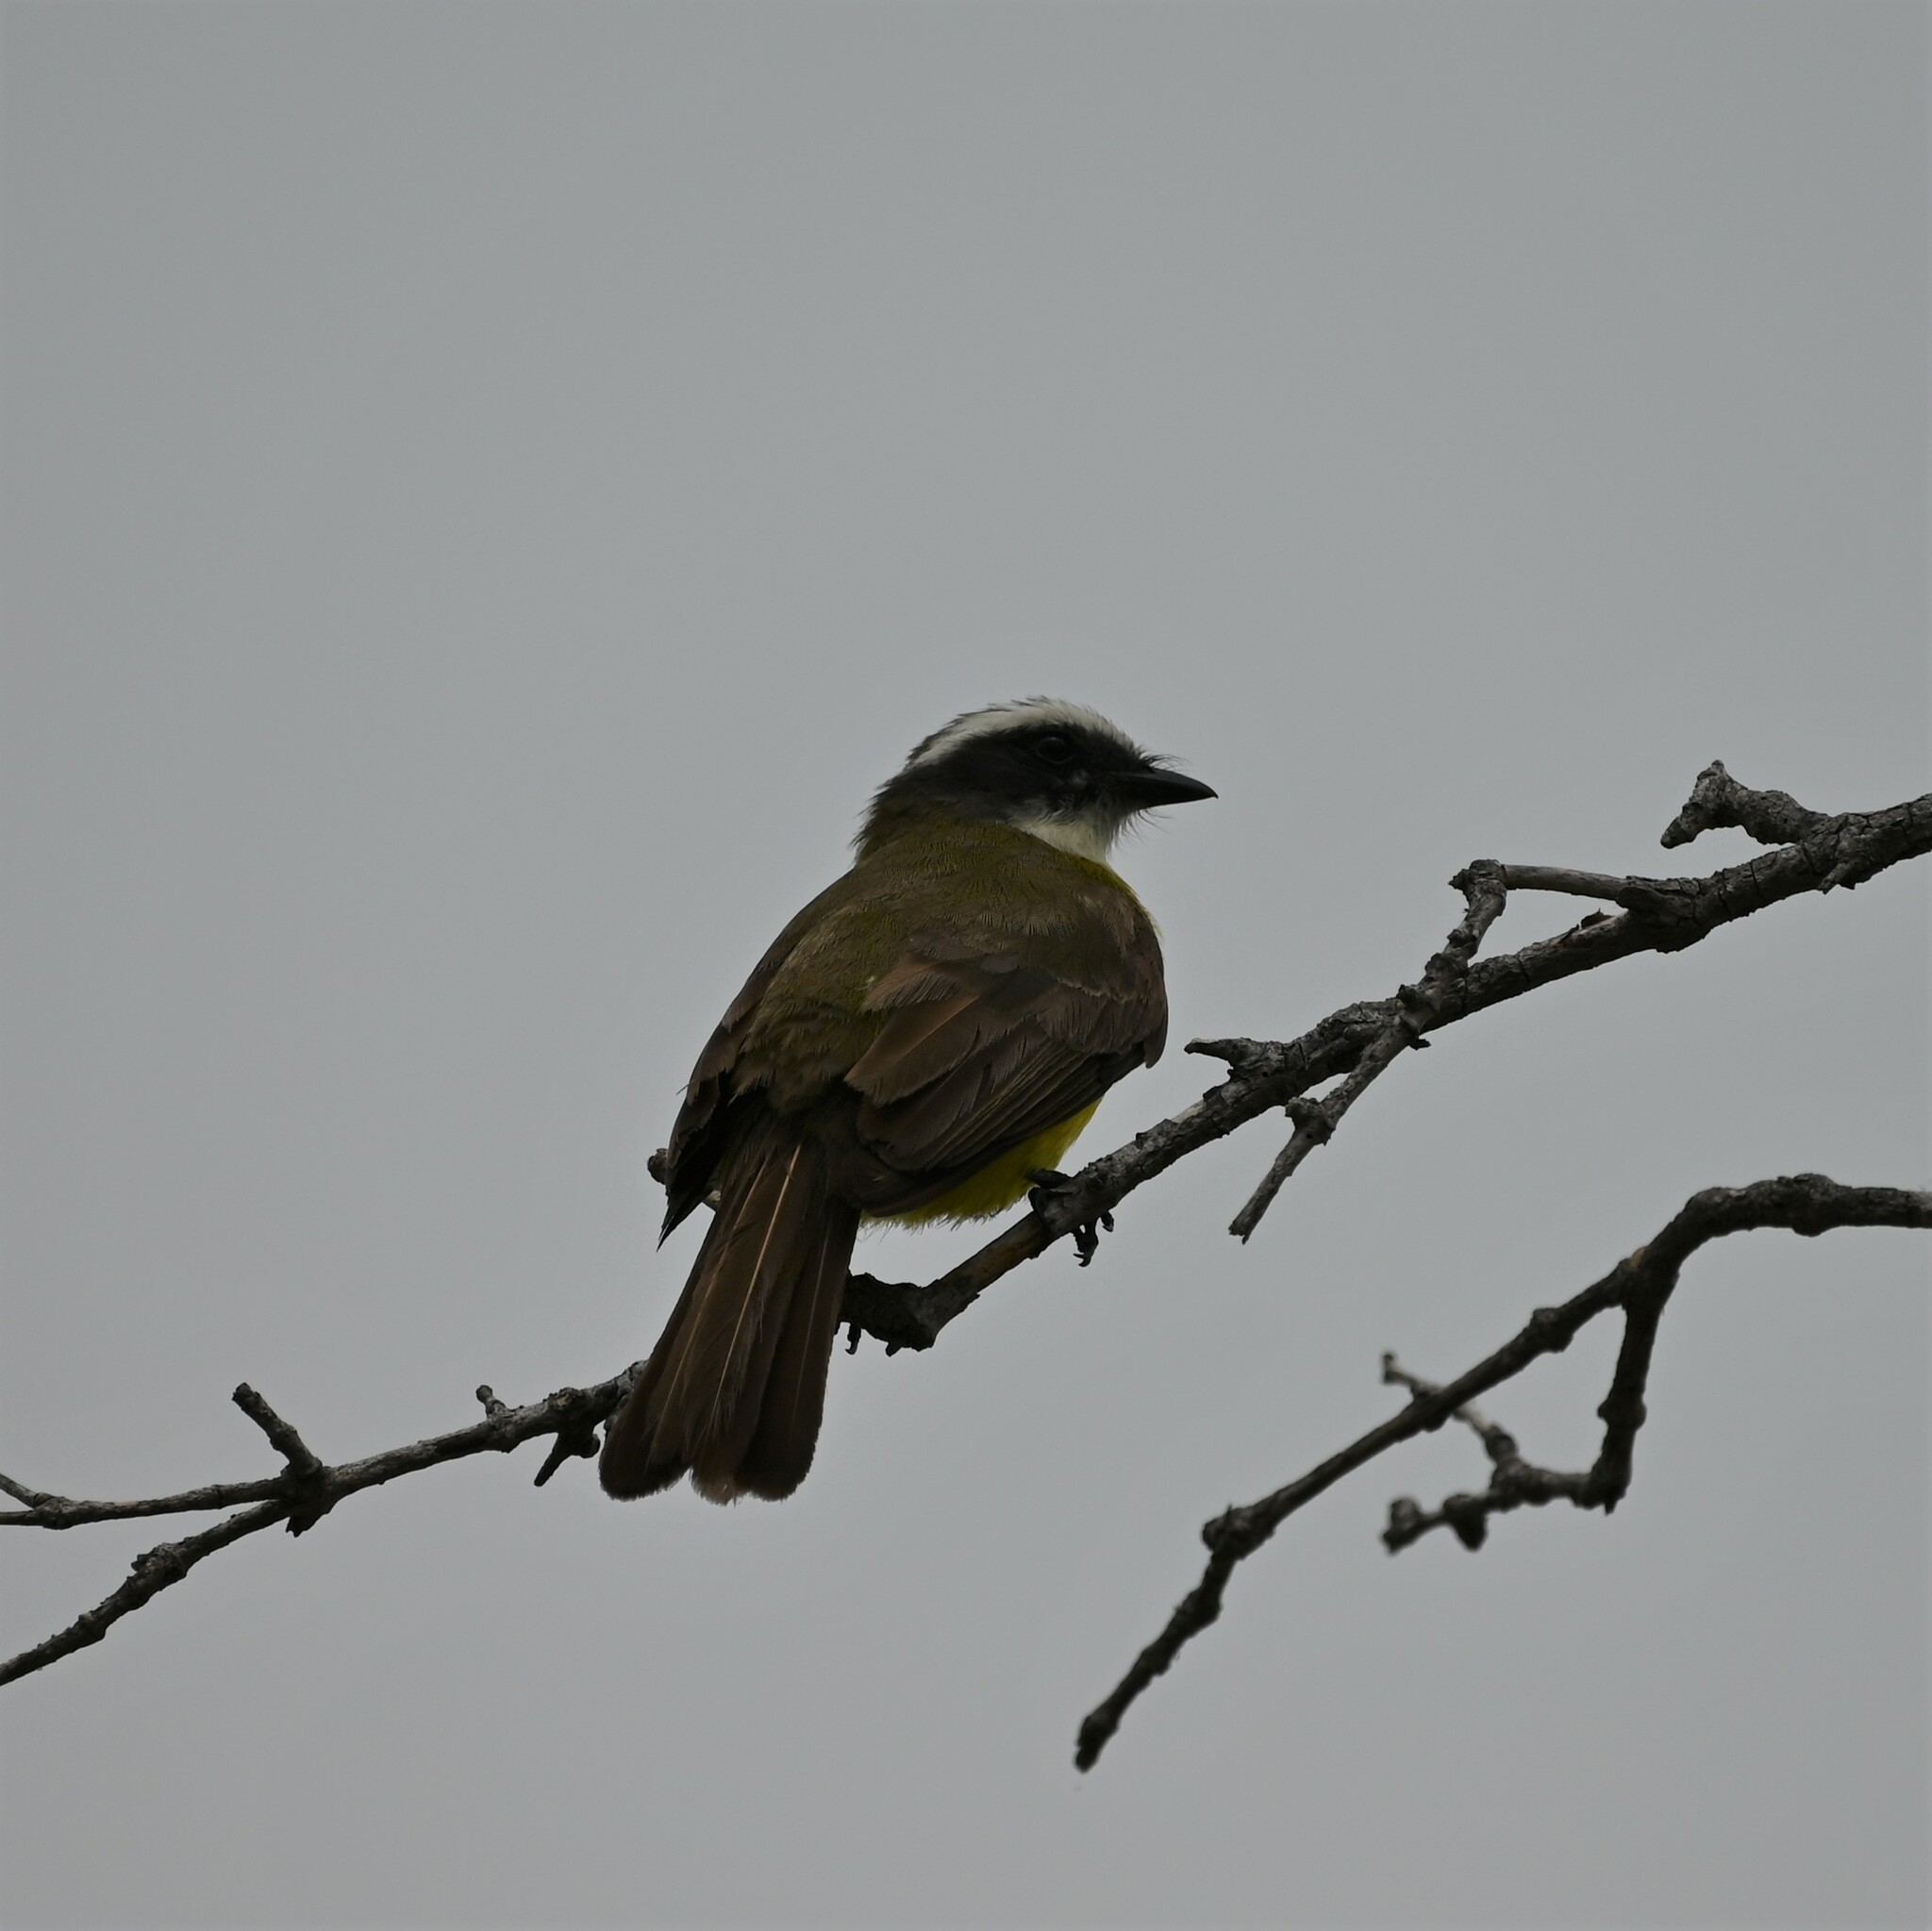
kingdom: Animalia
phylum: Chordata
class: Aves
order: Passeriformes
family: Tyrannidae
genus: Myiozetetes
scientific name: Myiozetetes similis
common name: Social flycatcher
